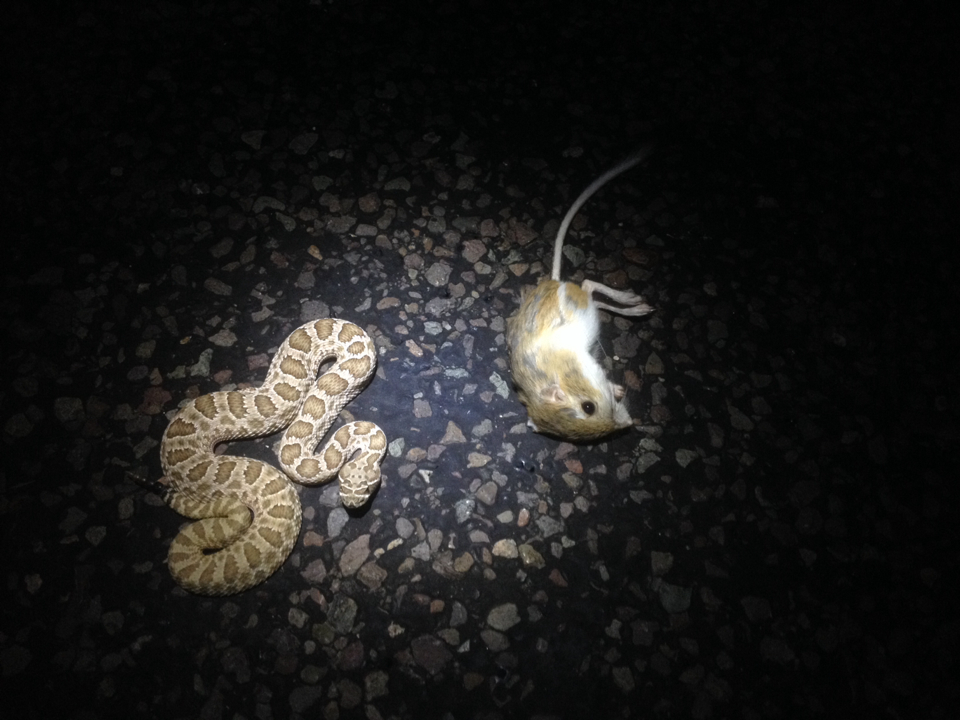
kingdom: Animalia
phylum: Chordata
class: Squamata
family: Viperidae
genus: Crotalus
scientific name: Crotalus viridis
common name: Prairie rattlesnake
